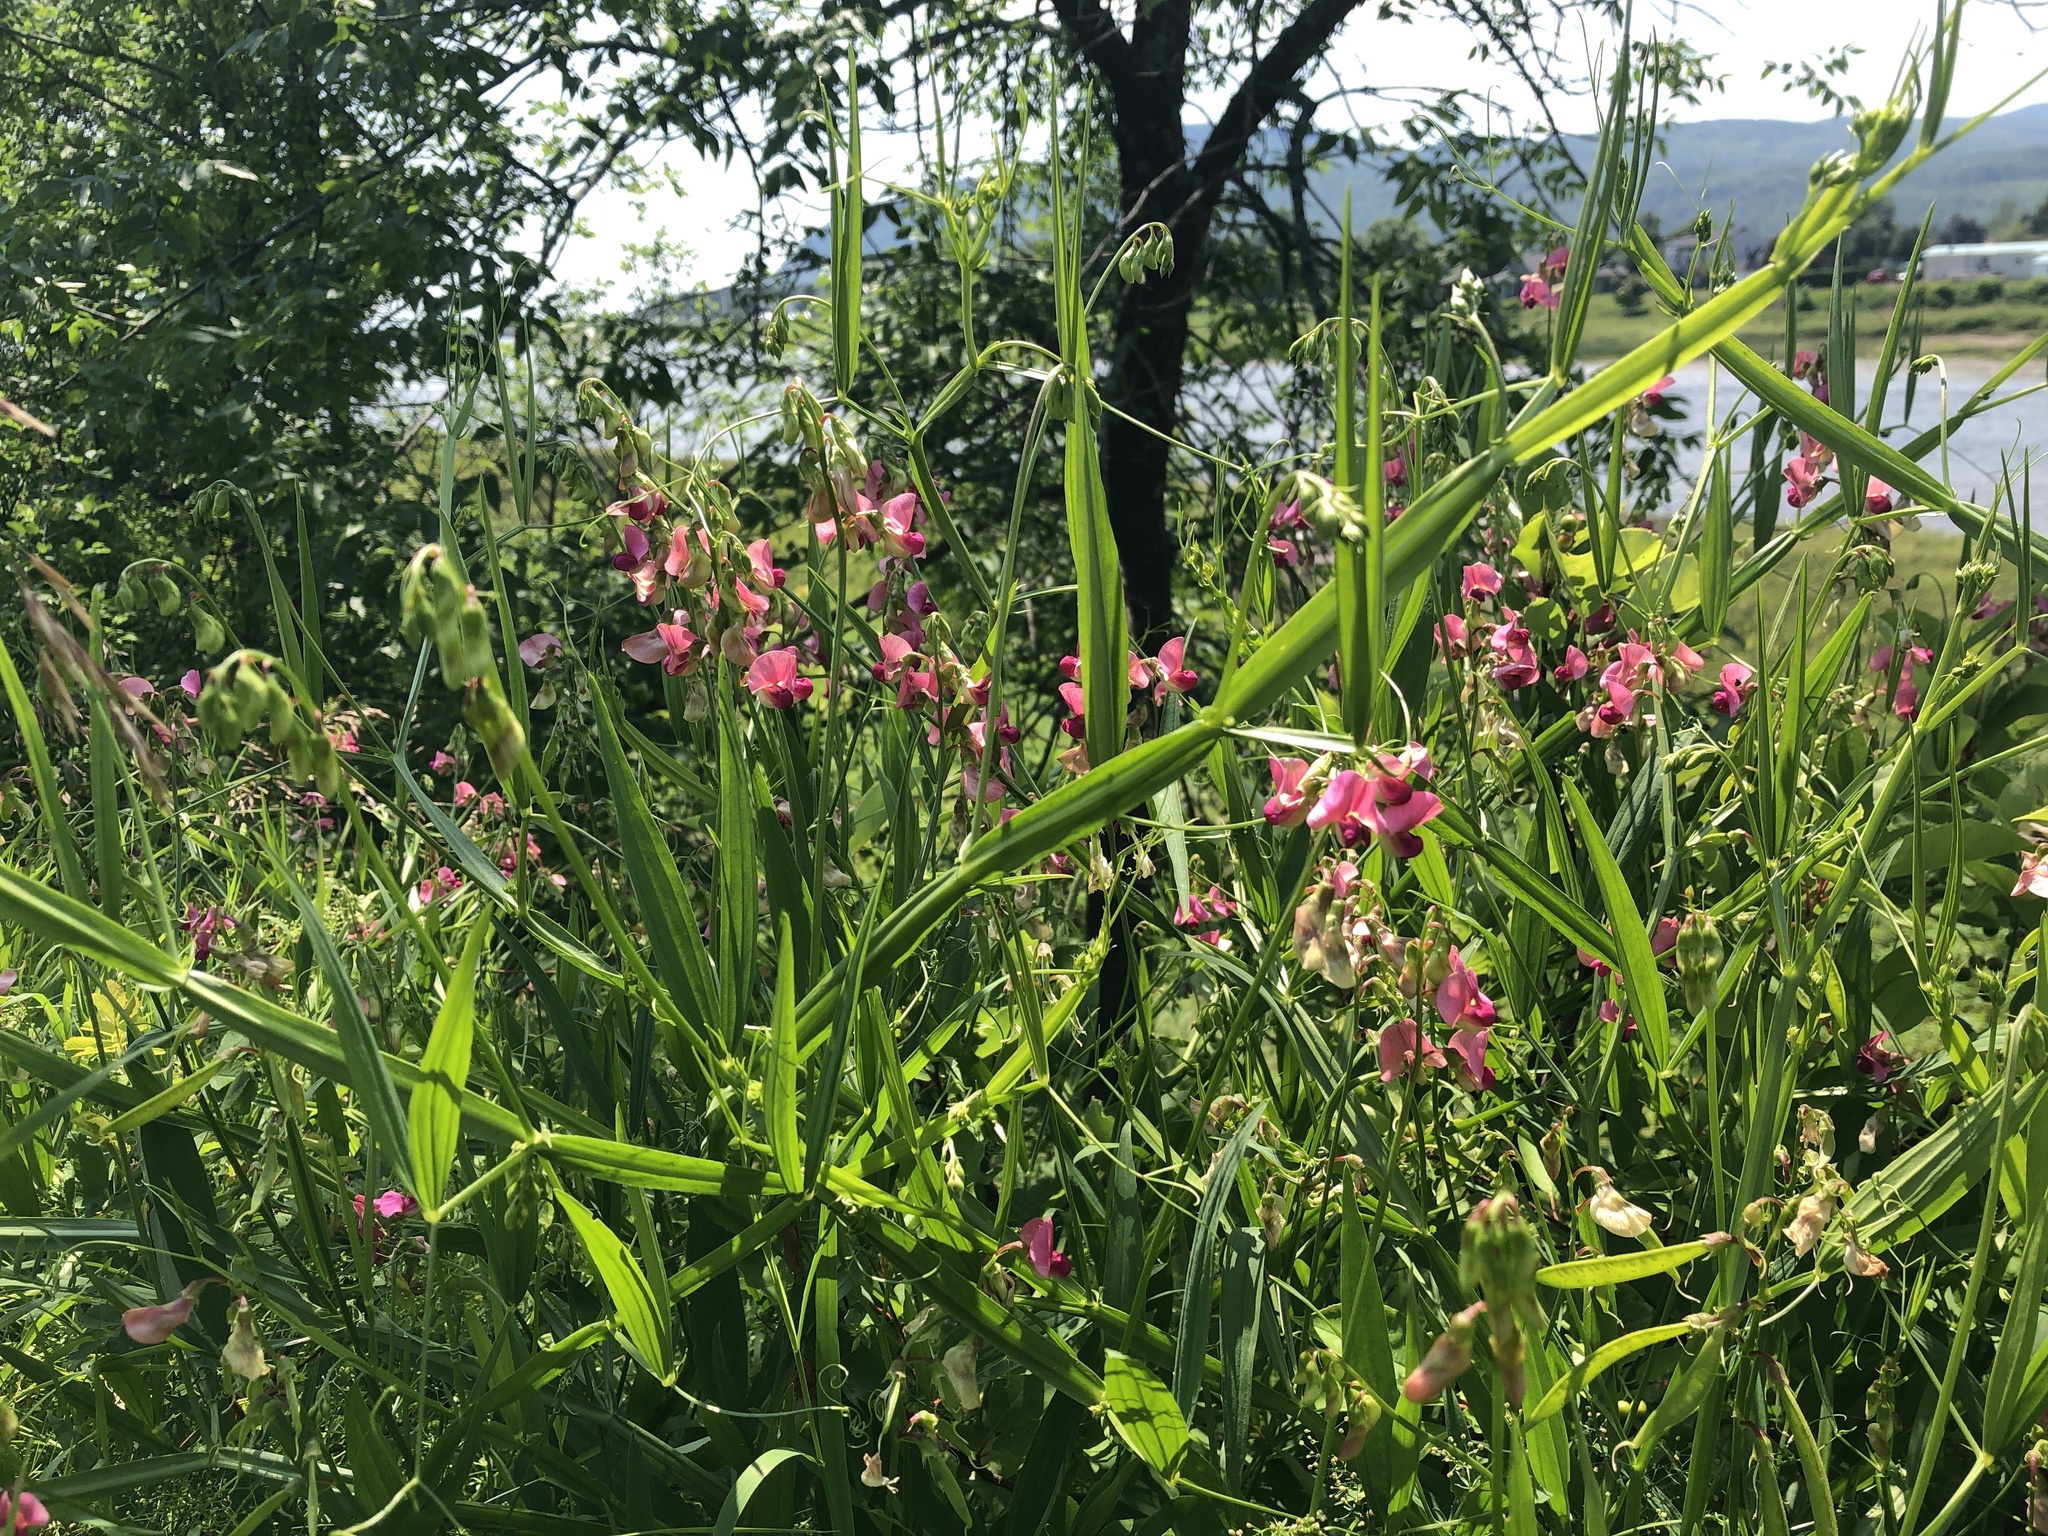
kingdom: Plantae
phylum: Tracheophyta
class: Magnoliopsida
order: Fabales
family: Fabaceae
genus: Lathyrus
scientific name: Lathyrus sylvestris
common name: Flat pea
